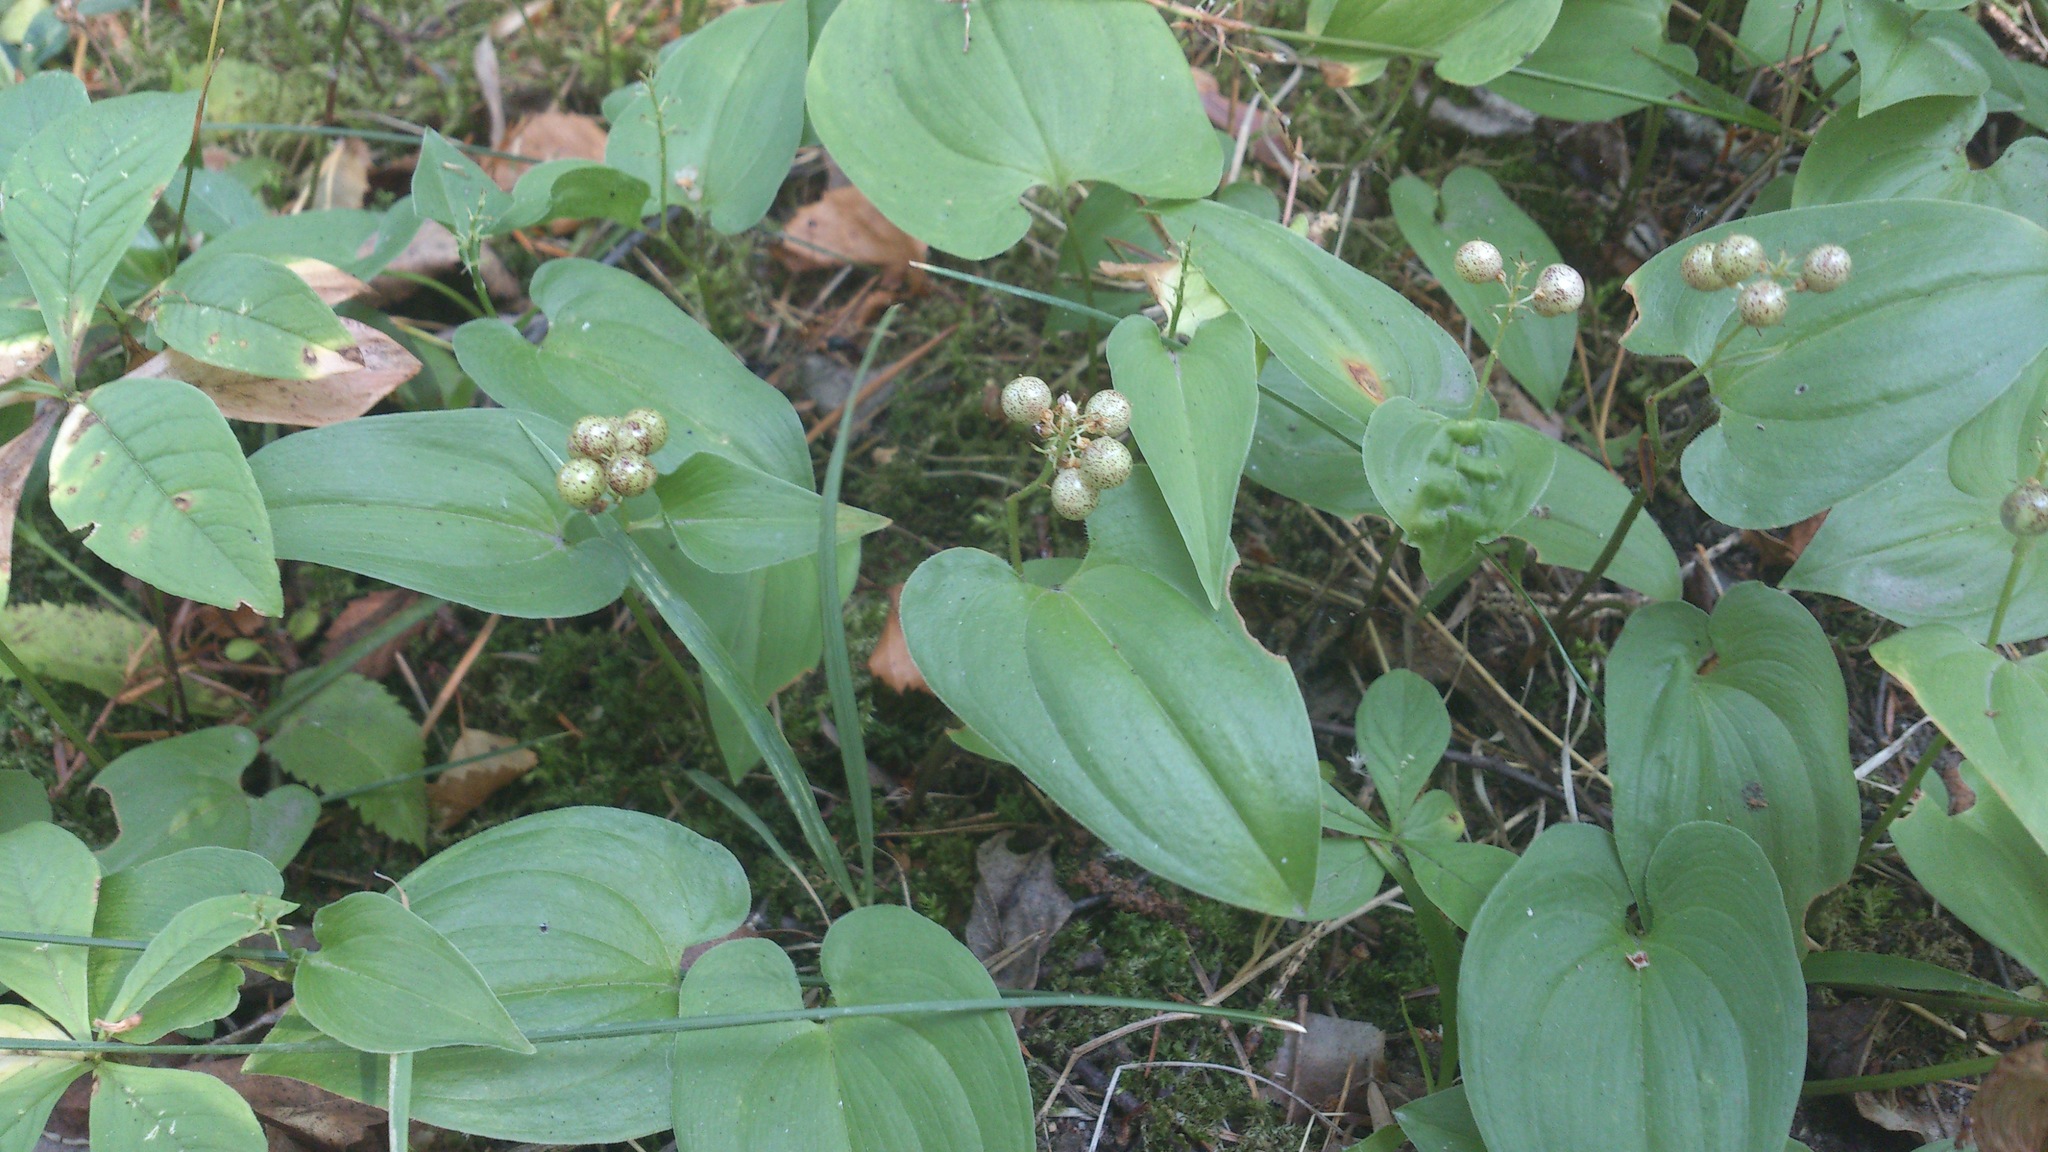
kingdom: Plantae
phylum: Tracheophyta
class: Liliopsida
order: Asparagales
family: Asparagaceae
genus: Maianthemum
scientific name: Maianthemum bifolium
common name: May lily
